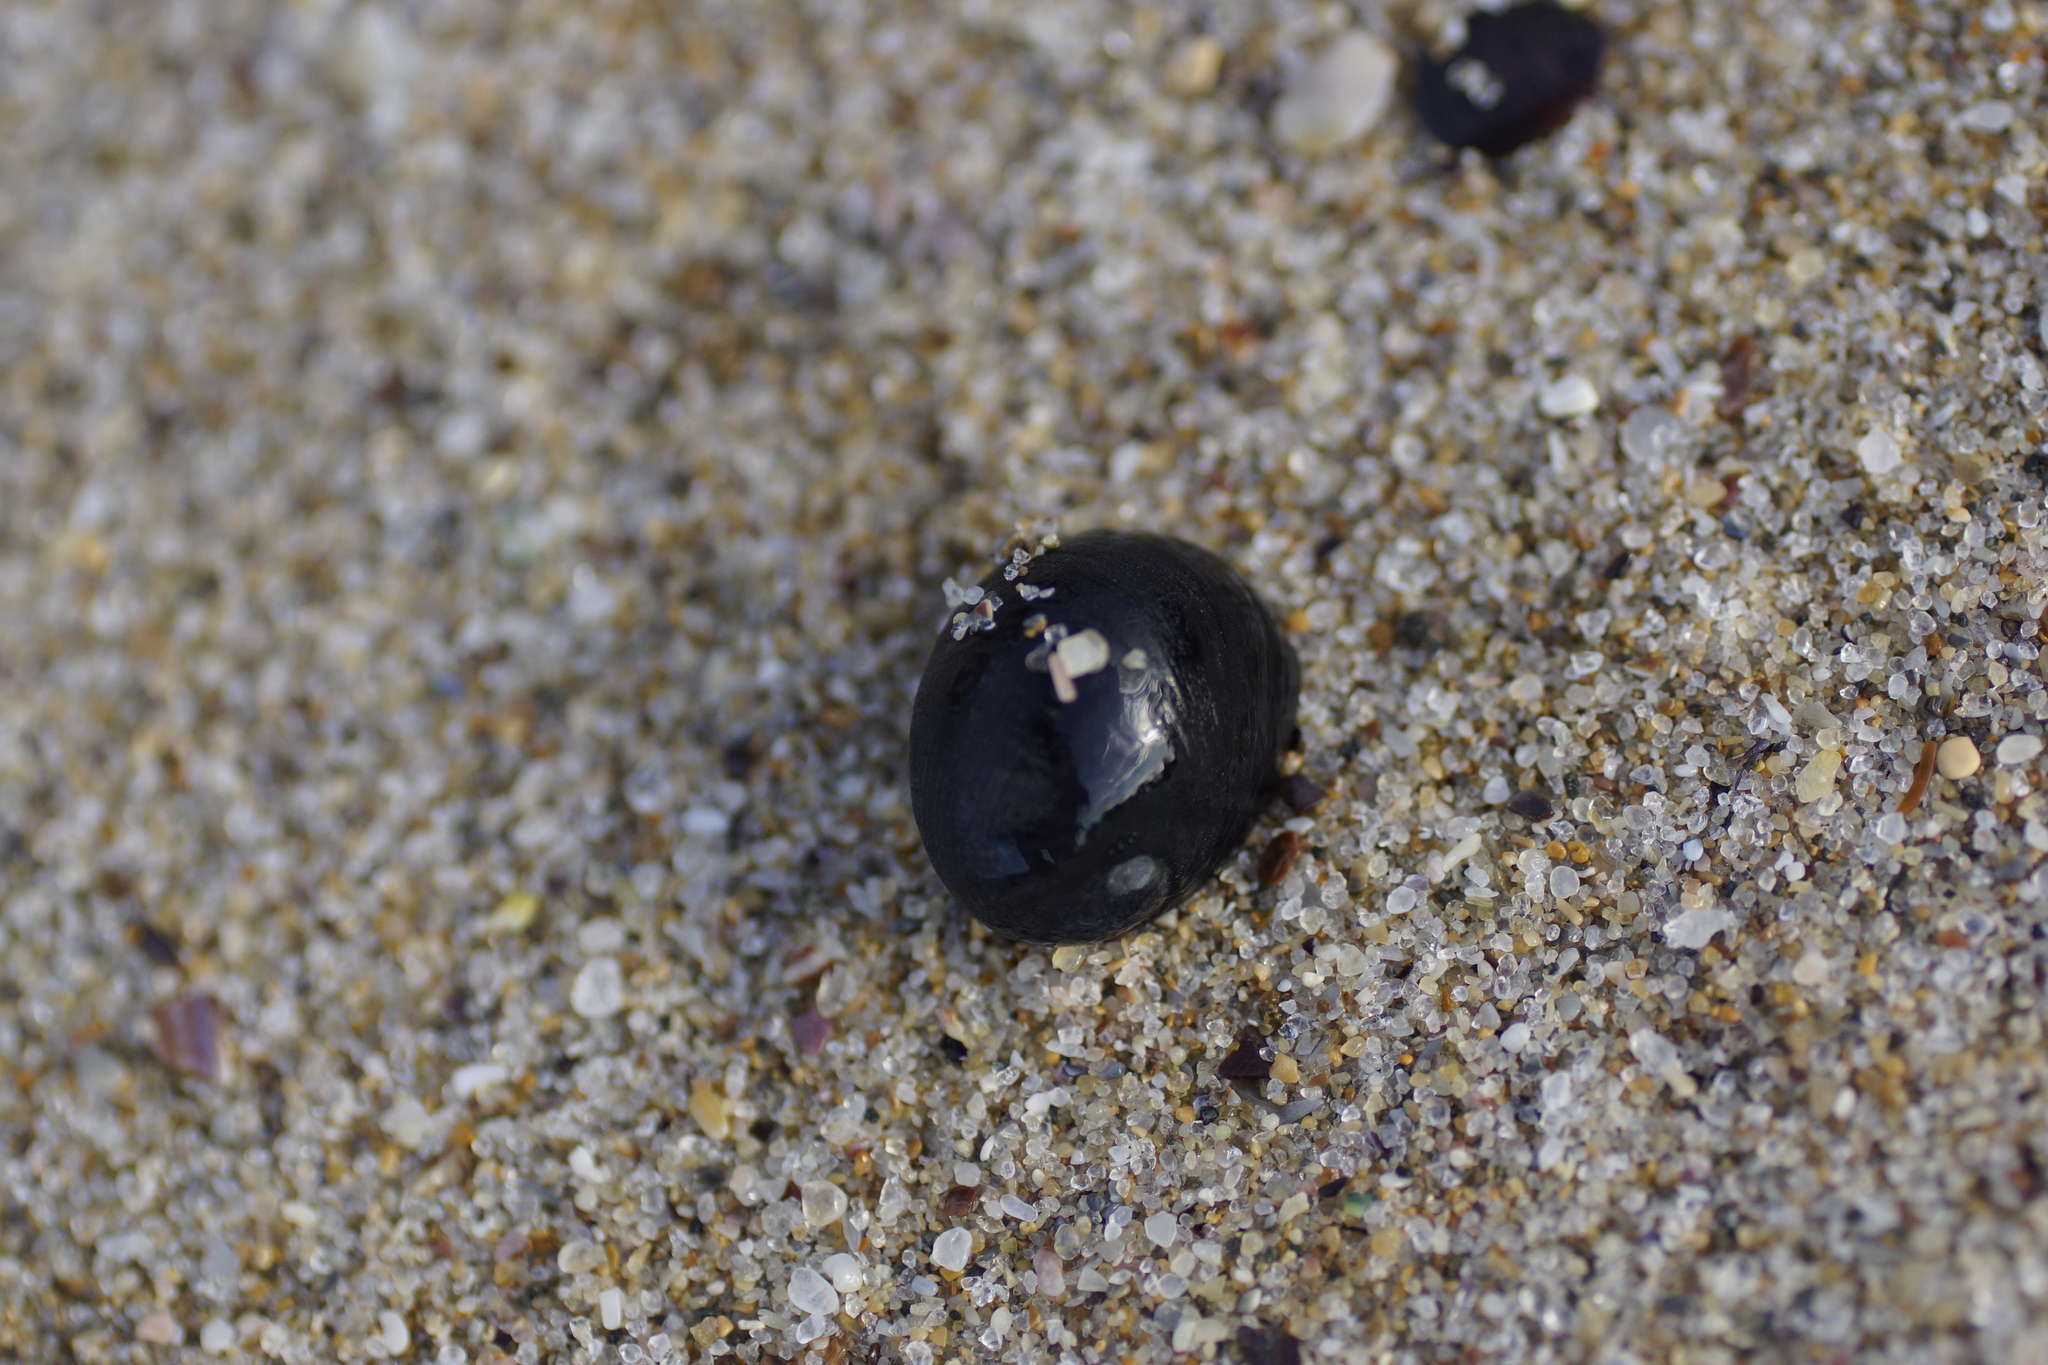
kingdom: Animalia
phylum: Mollusca
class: Gastropoda
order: Cycloneritida
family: Neritidae
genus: Nerita
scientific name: Nerita atramentosa
